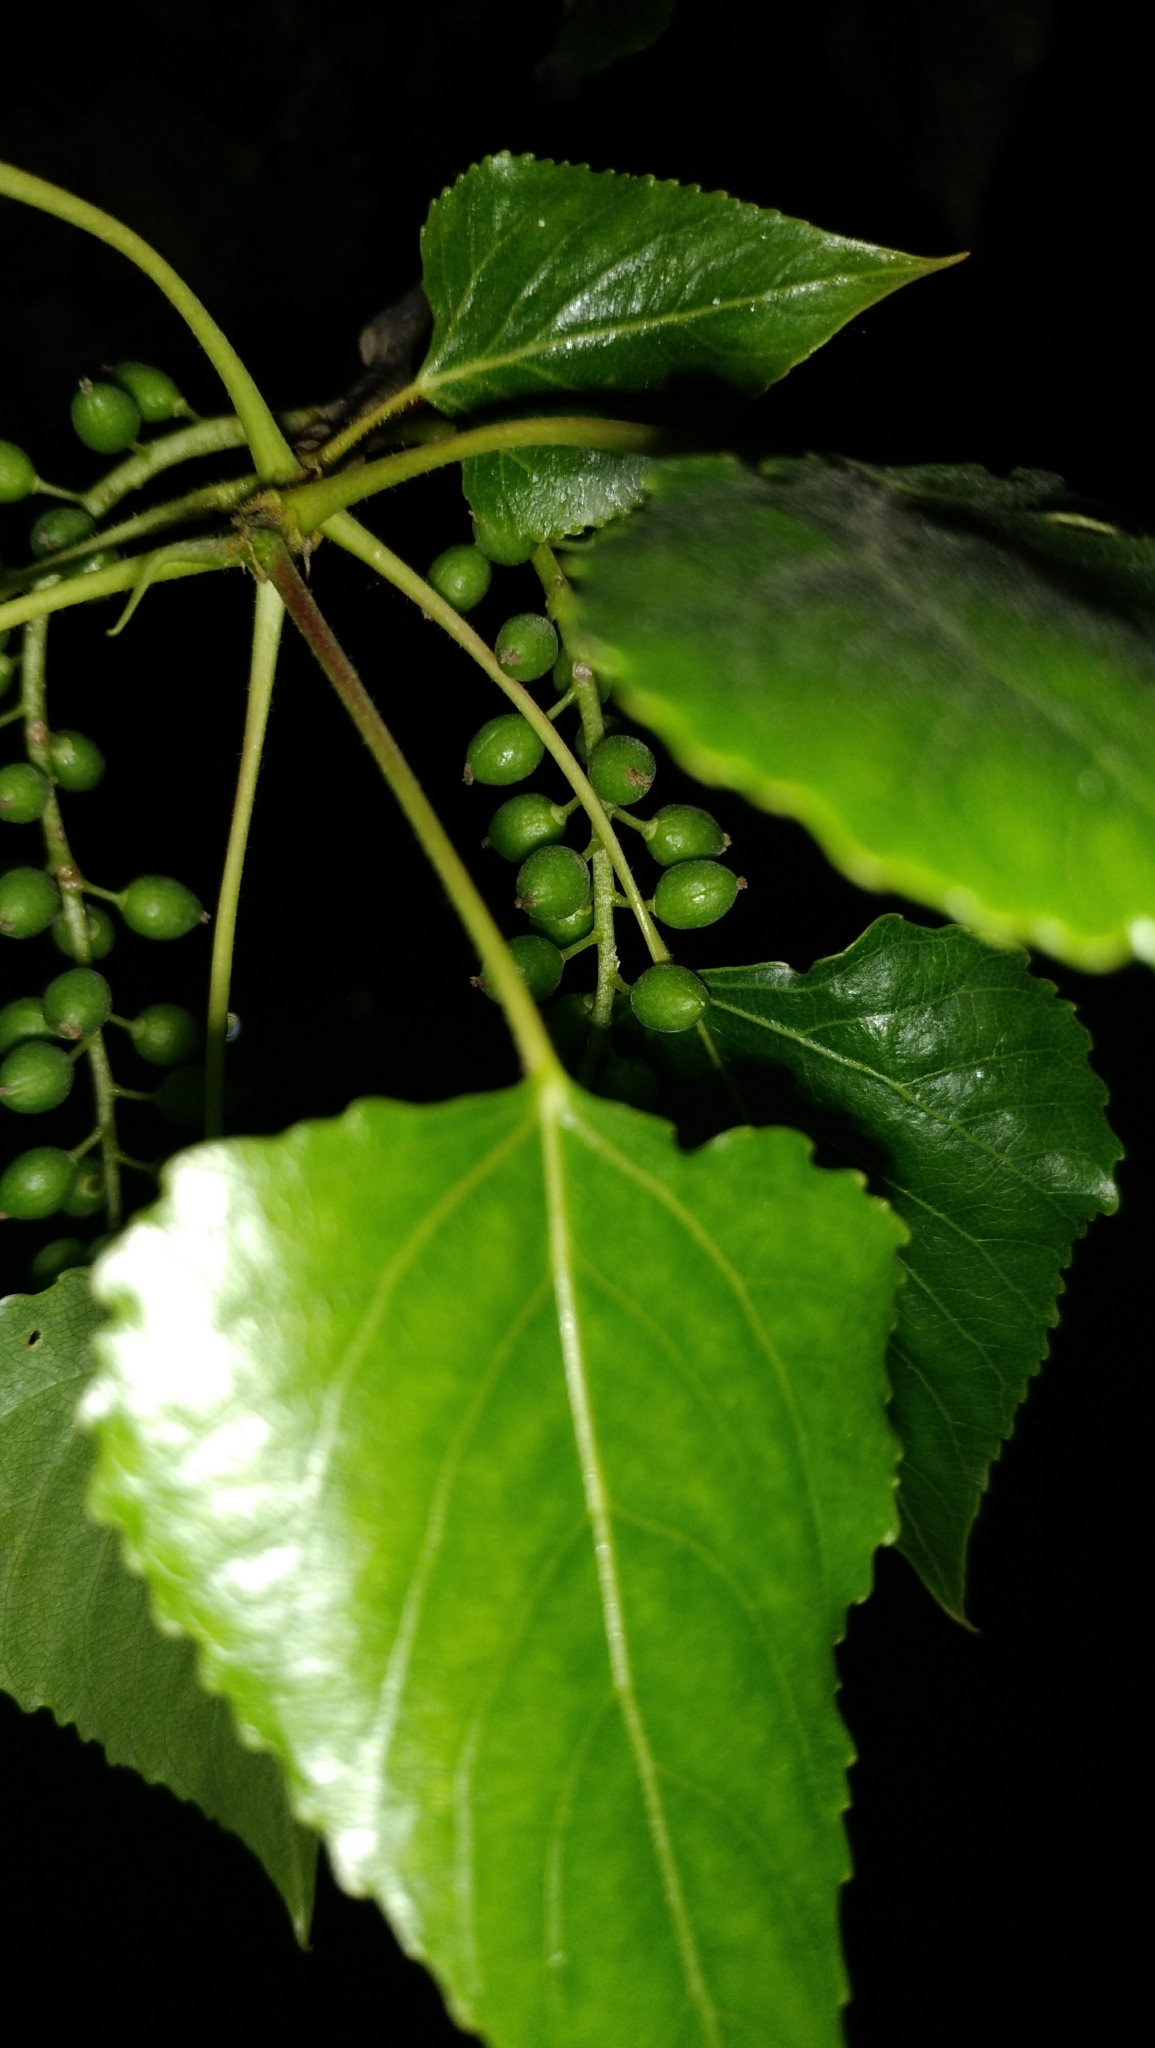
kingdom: Plantae
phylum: Tracheophyta
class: Magnoliopsida
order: Malpighiales
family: Salicaceae
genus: Populus
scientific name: Populus nigra
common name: Black poplar
